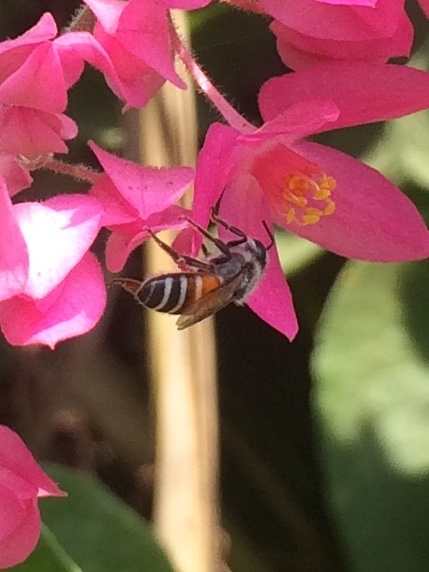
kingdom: Animalia
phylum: Arthropoda
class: Insecta
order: Hymenoptera
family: Apidae
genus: Apis
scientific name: Apis florea
